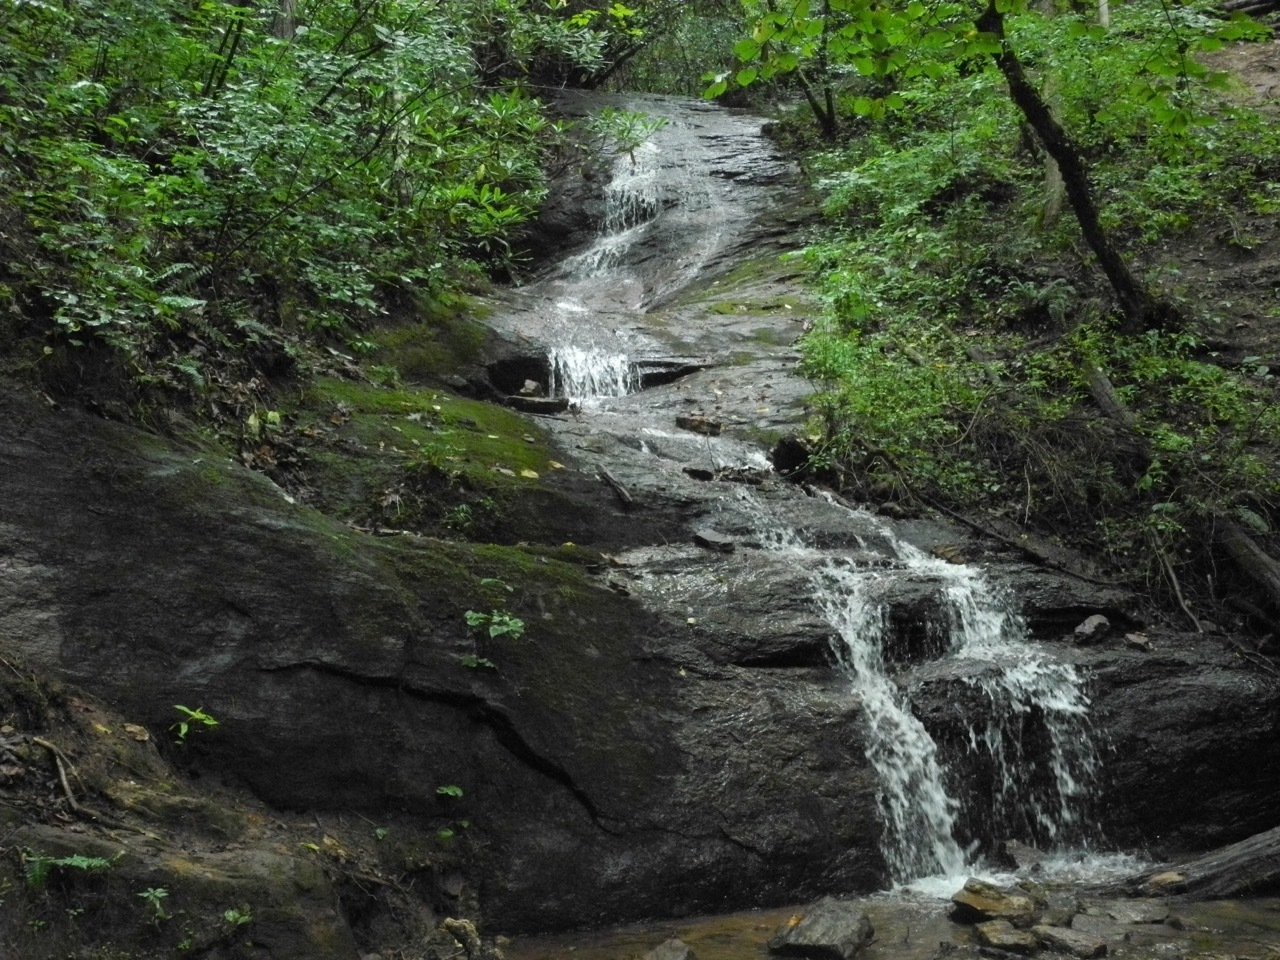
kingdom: Plantae
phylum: Tracheophyta
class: Magnoliopsida
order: Asterales
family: Campanulaceae
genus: Lobelia
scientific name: Lobelia amoena
